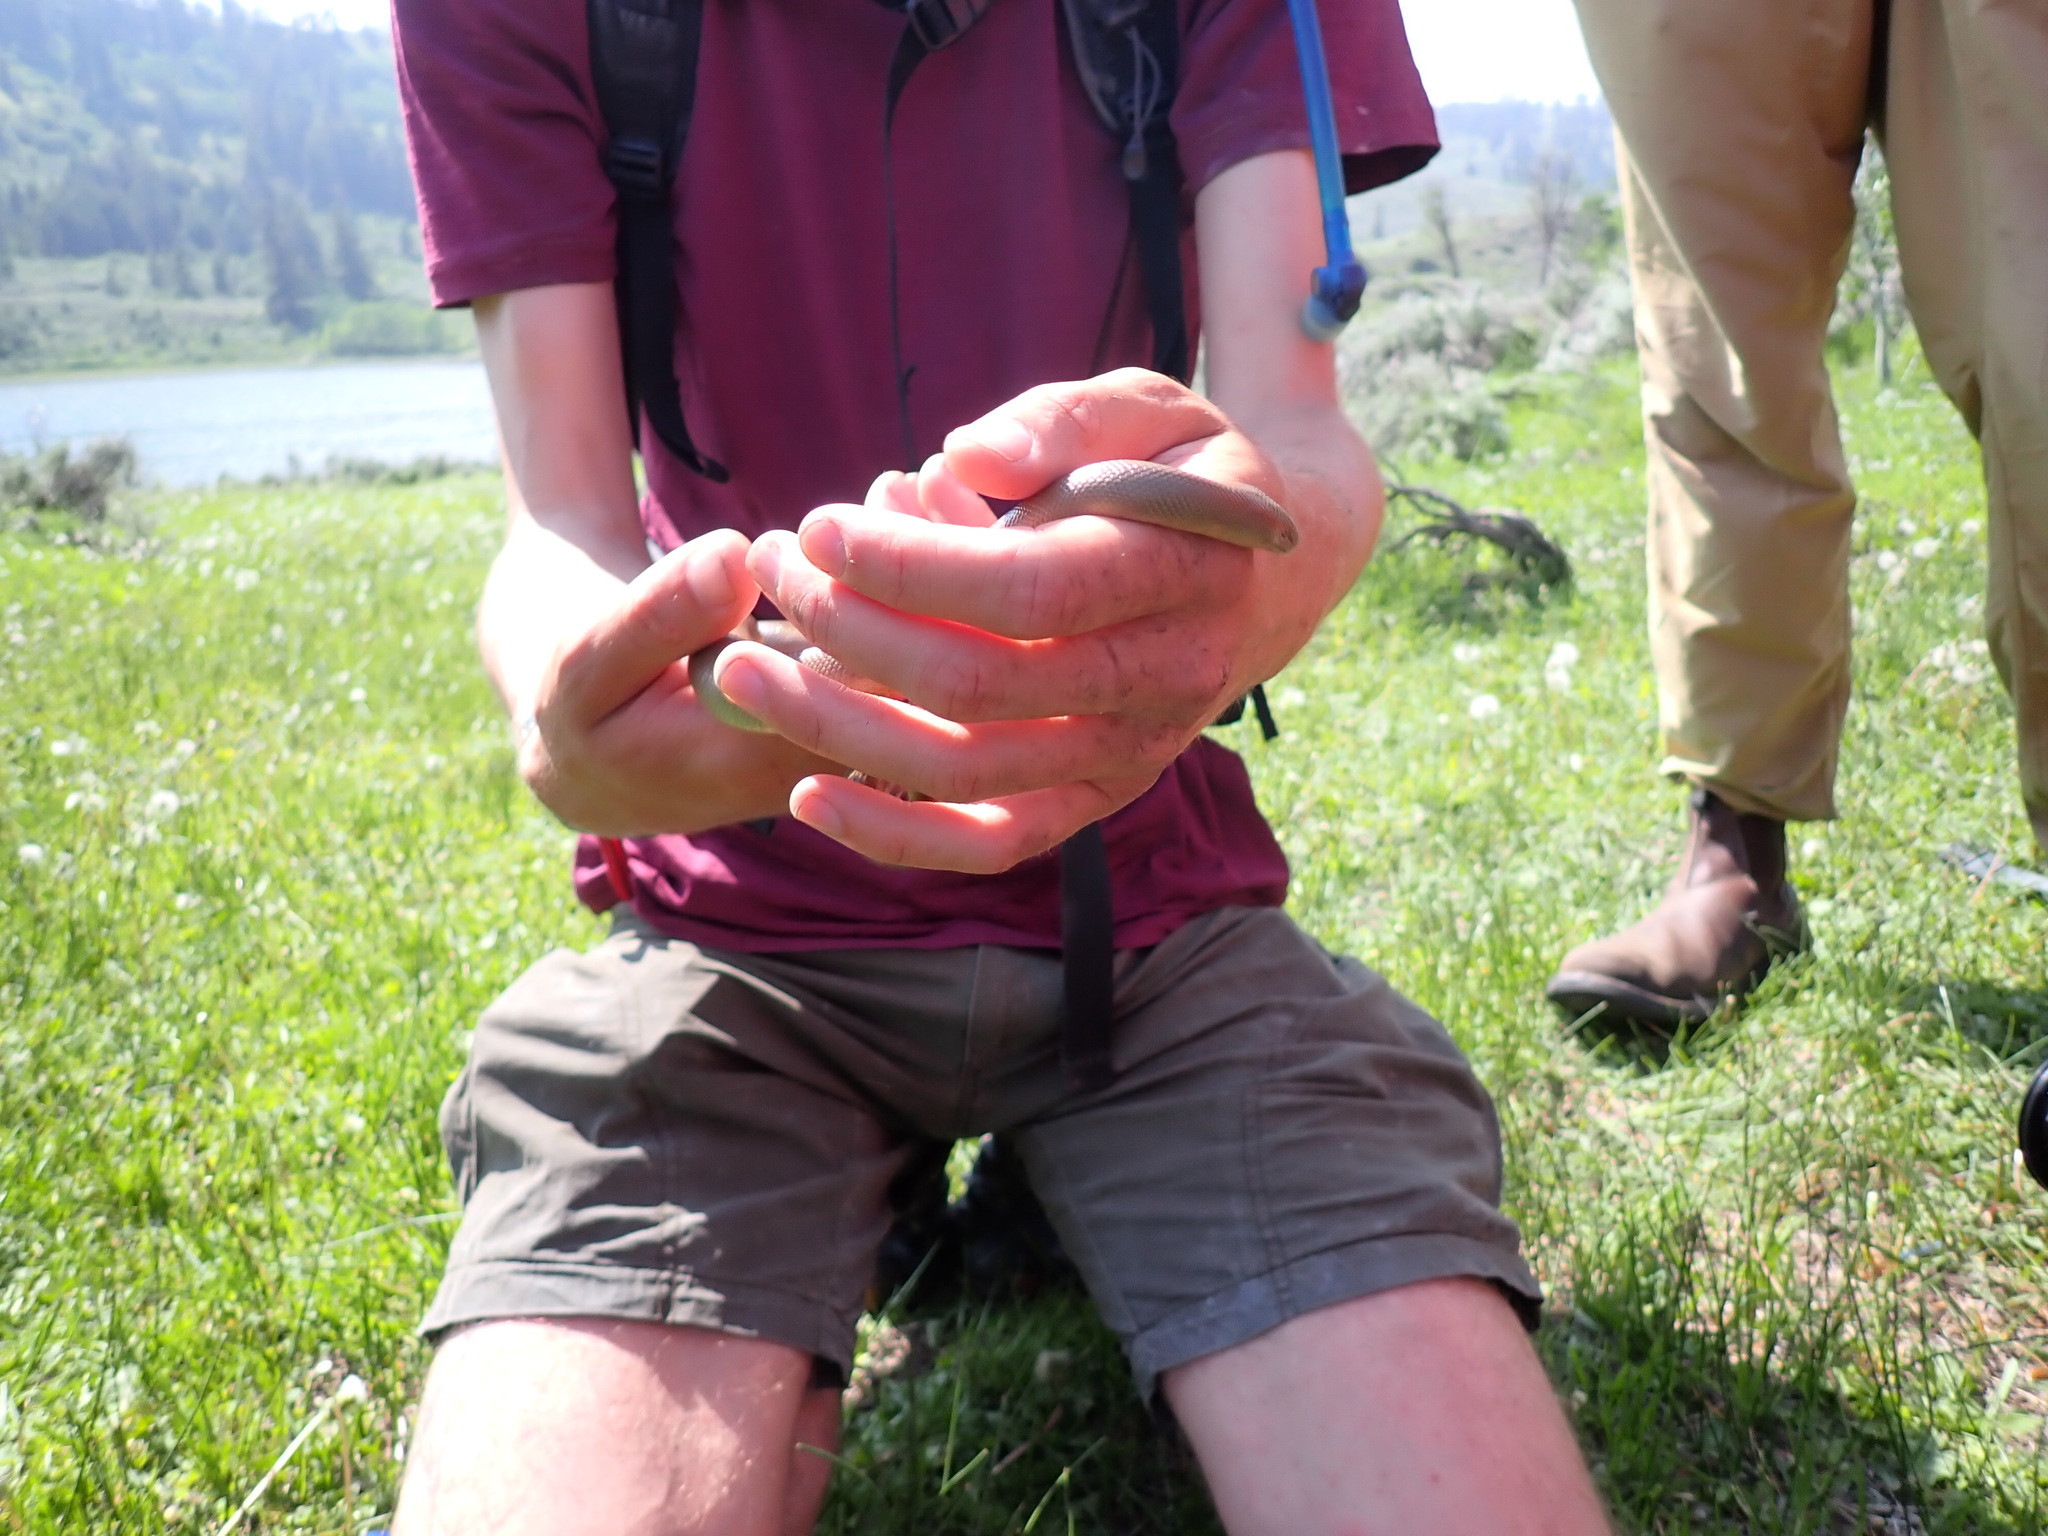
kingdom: Animalia
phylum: Chordata
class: Squamata
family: Boidae
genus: Charina
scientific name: Charina bottae
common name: Northern rubber boa
